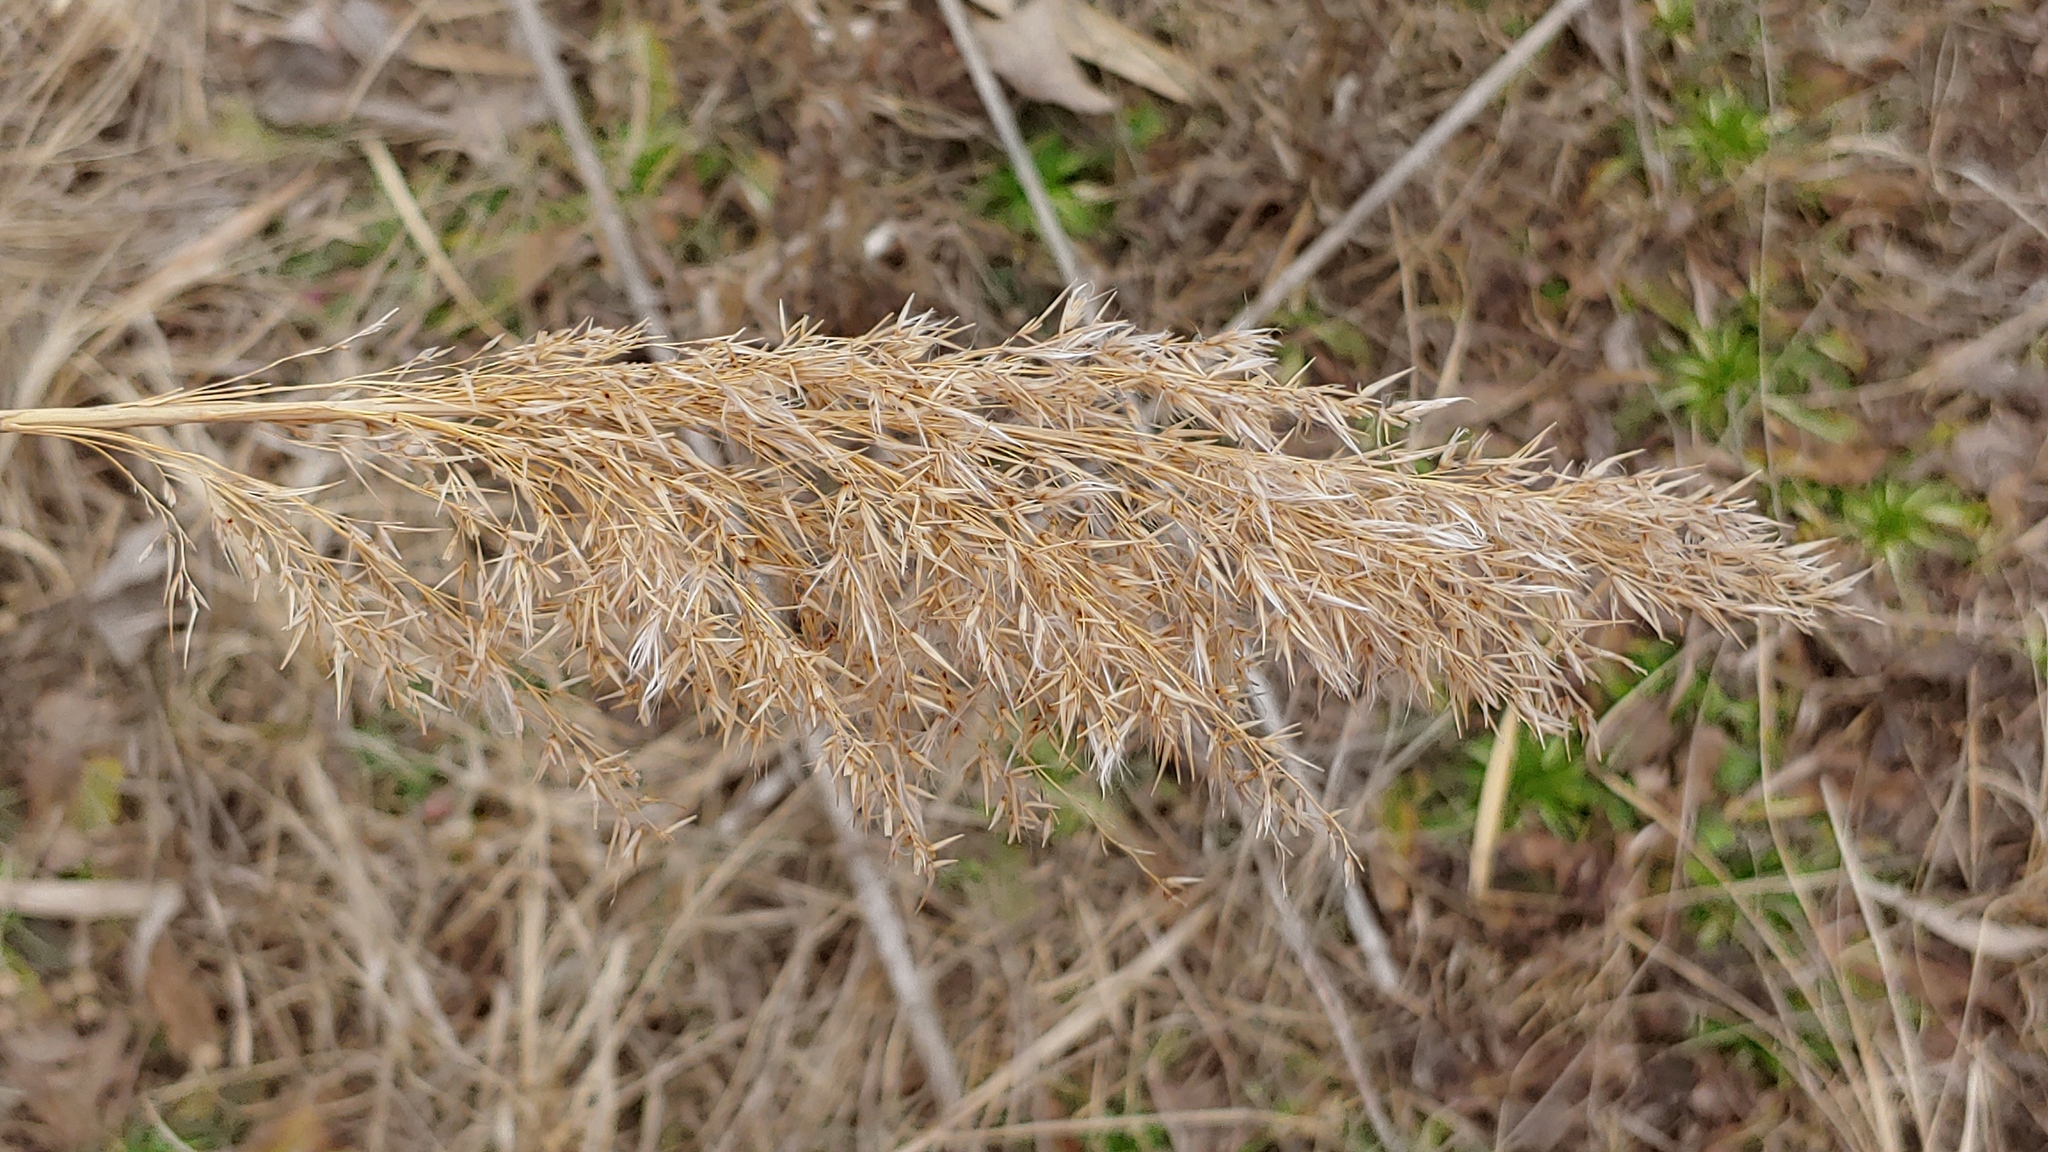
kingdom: Plantae
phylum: Tracheophyta
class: Liliopsida
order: Poales
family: Poaceae
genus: Phragmites
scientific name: Phragmites australis
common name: Common reed
